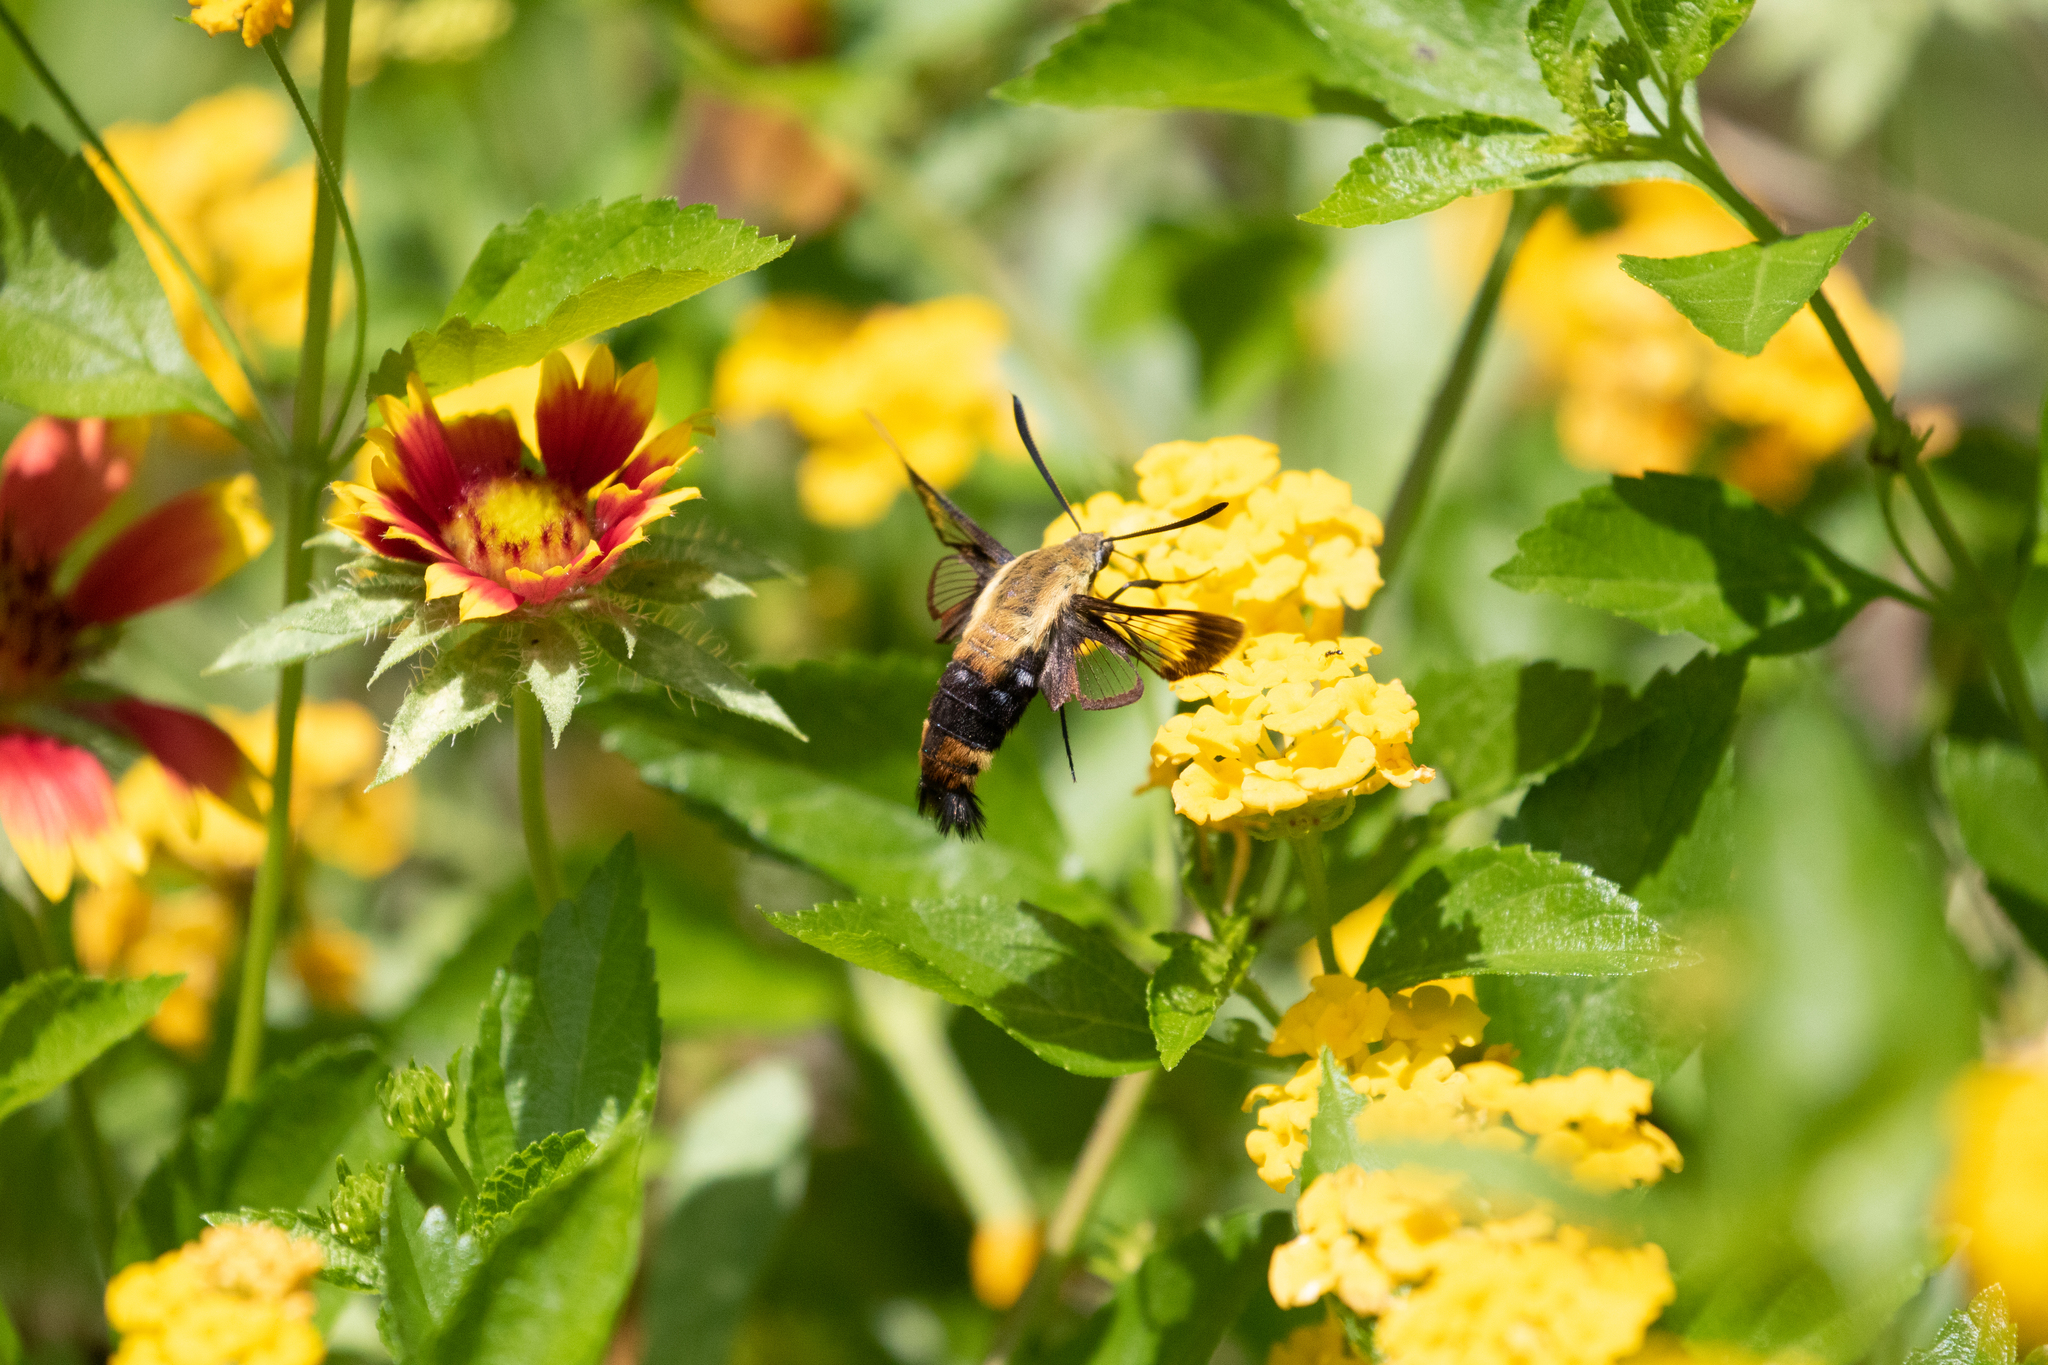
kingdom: Animalia
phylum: Arthropoda
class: Insecta
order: Lepidoptera
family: Sphingidae
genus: Hemaris
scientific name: Hemaris diffinis
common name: Bumblebee moth
